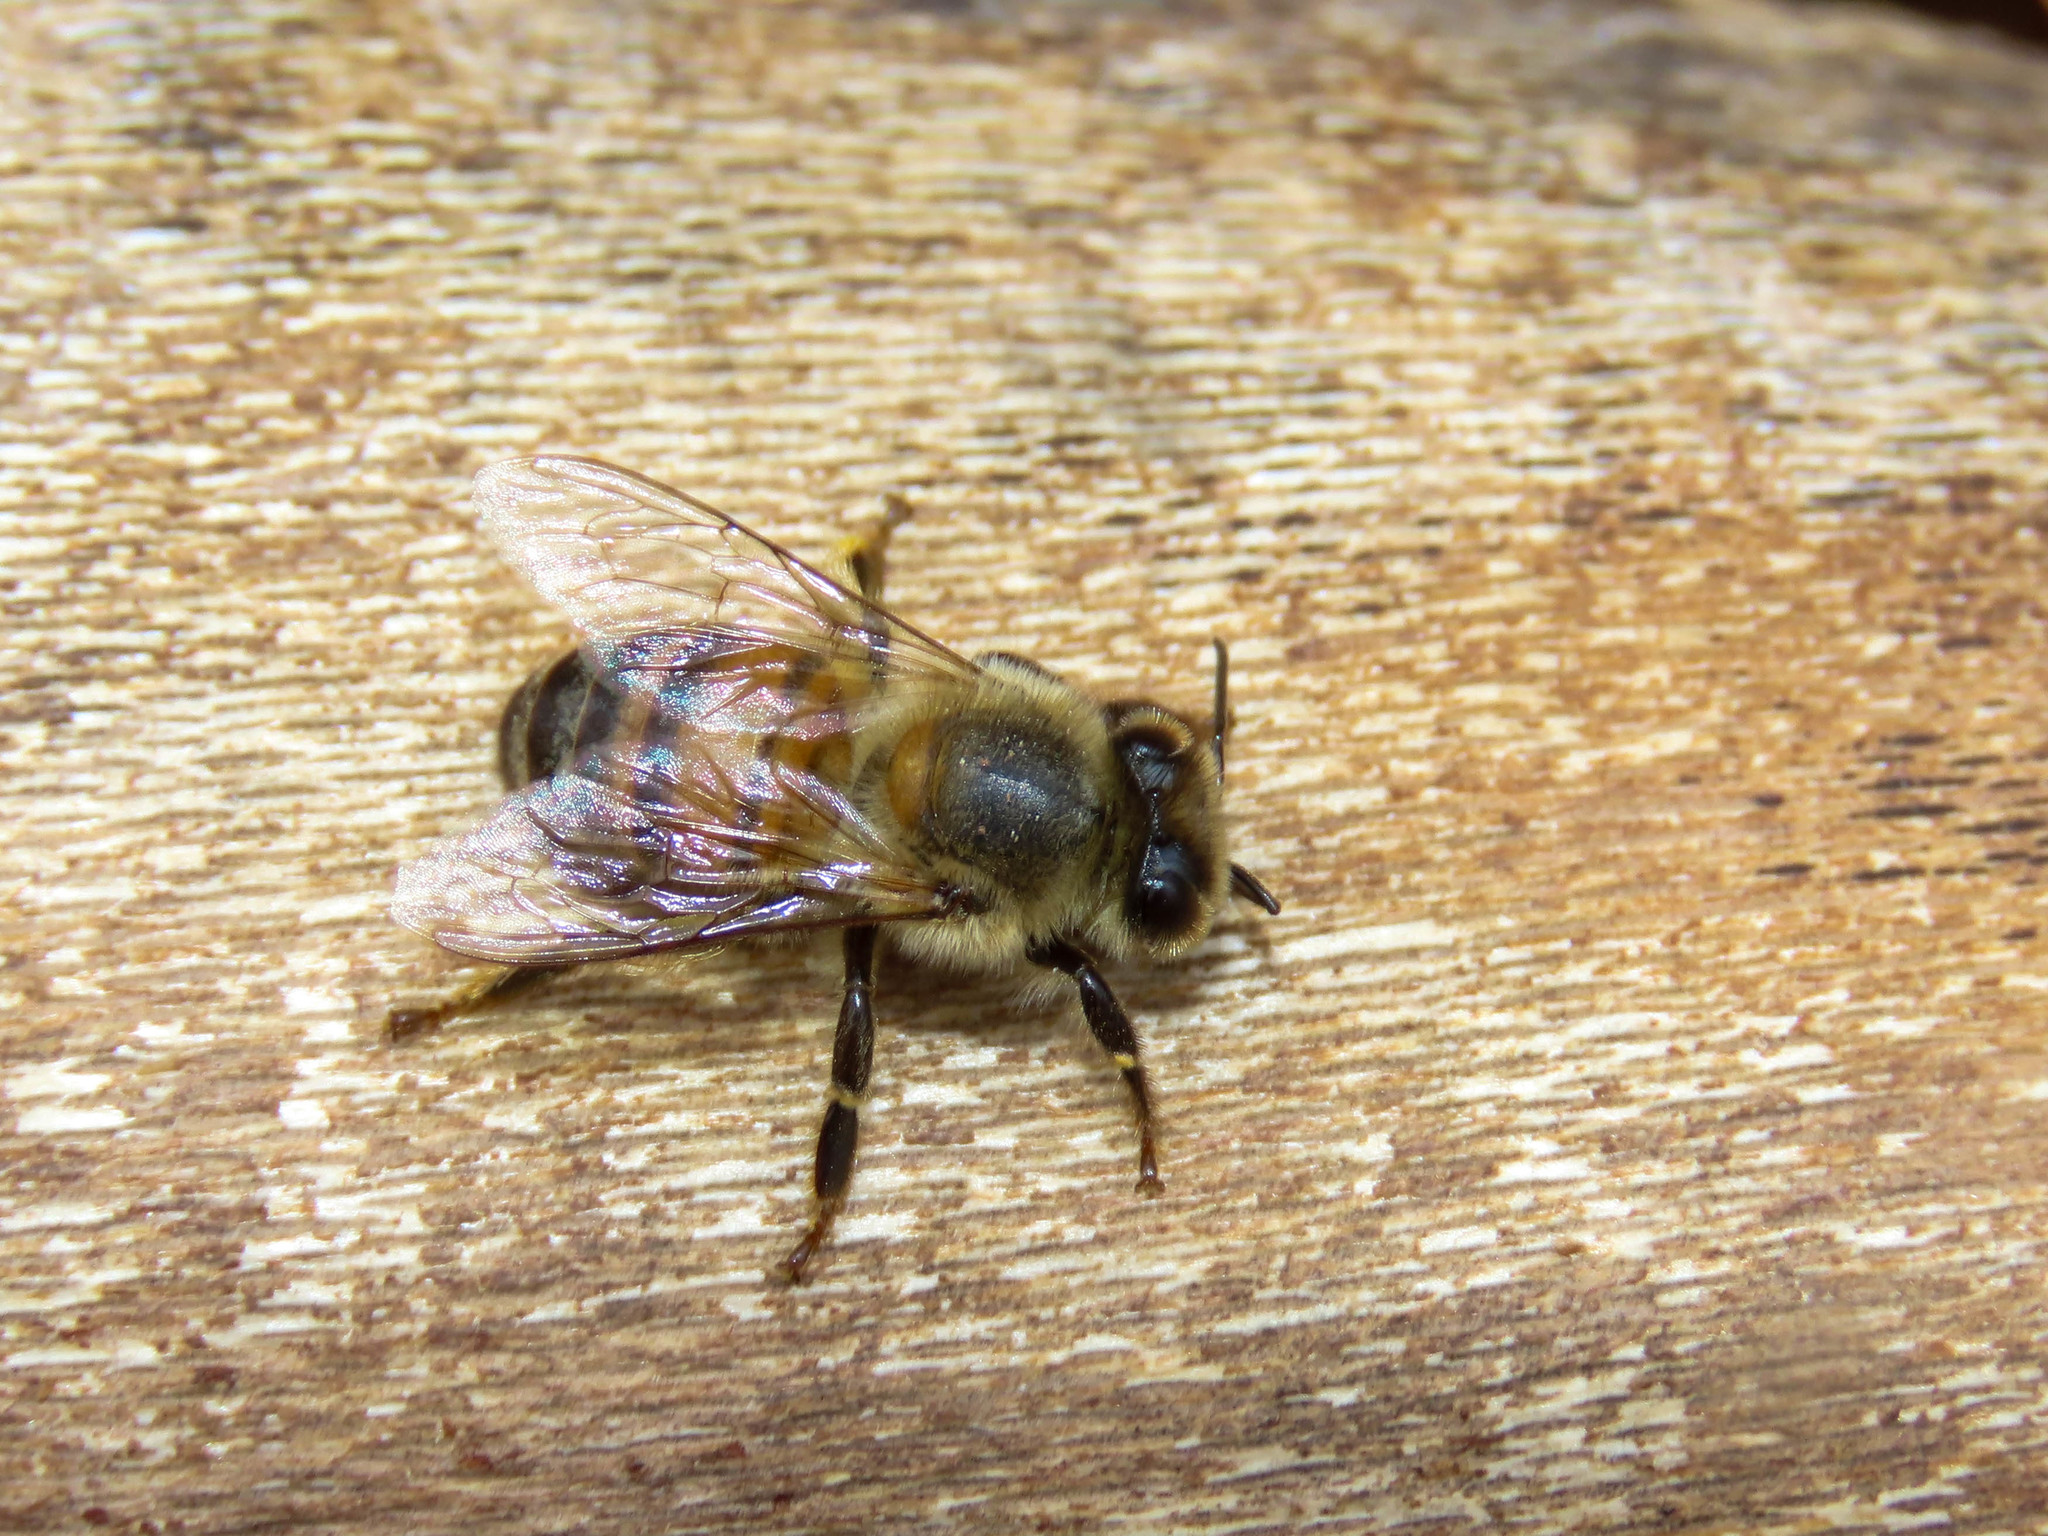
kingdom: Animalia
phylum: Arthropoda
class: Insecta
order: Hymenoptera
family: Apidae
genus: Apis
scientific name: Apis mellifera
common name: Honey bee
